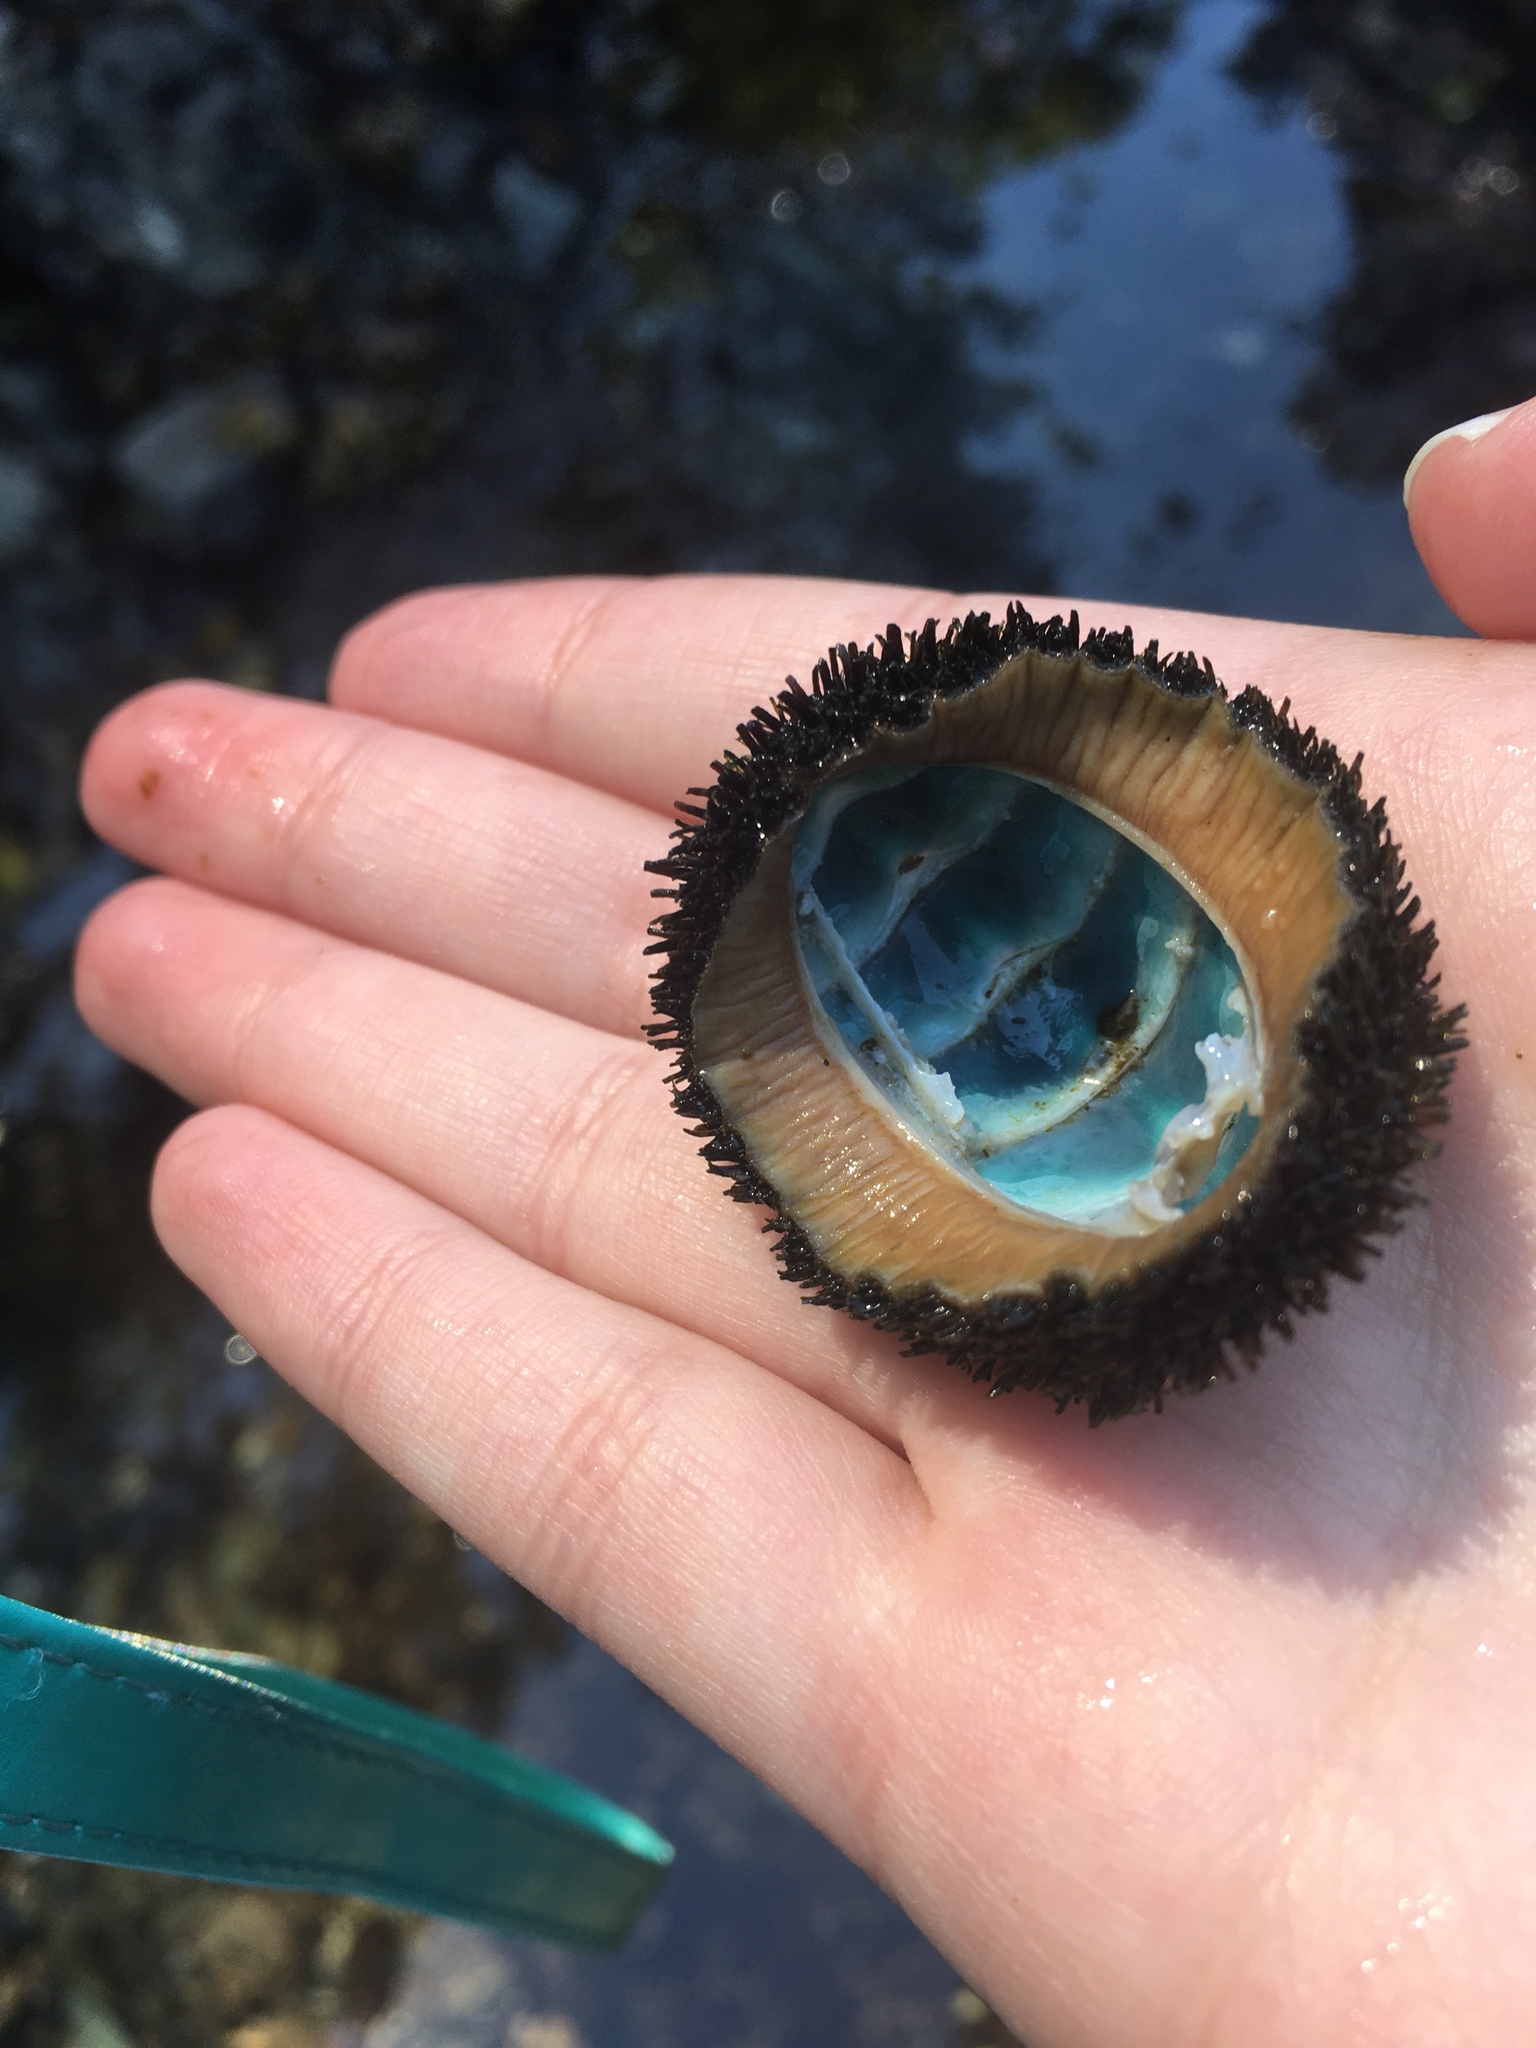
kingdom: Animalia
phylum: Mollusca
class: Polyplacophora
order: Chitonida
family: Mopaliidae
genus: Mopalia
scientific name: Mopalia muscosa
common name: Mossy chiton
